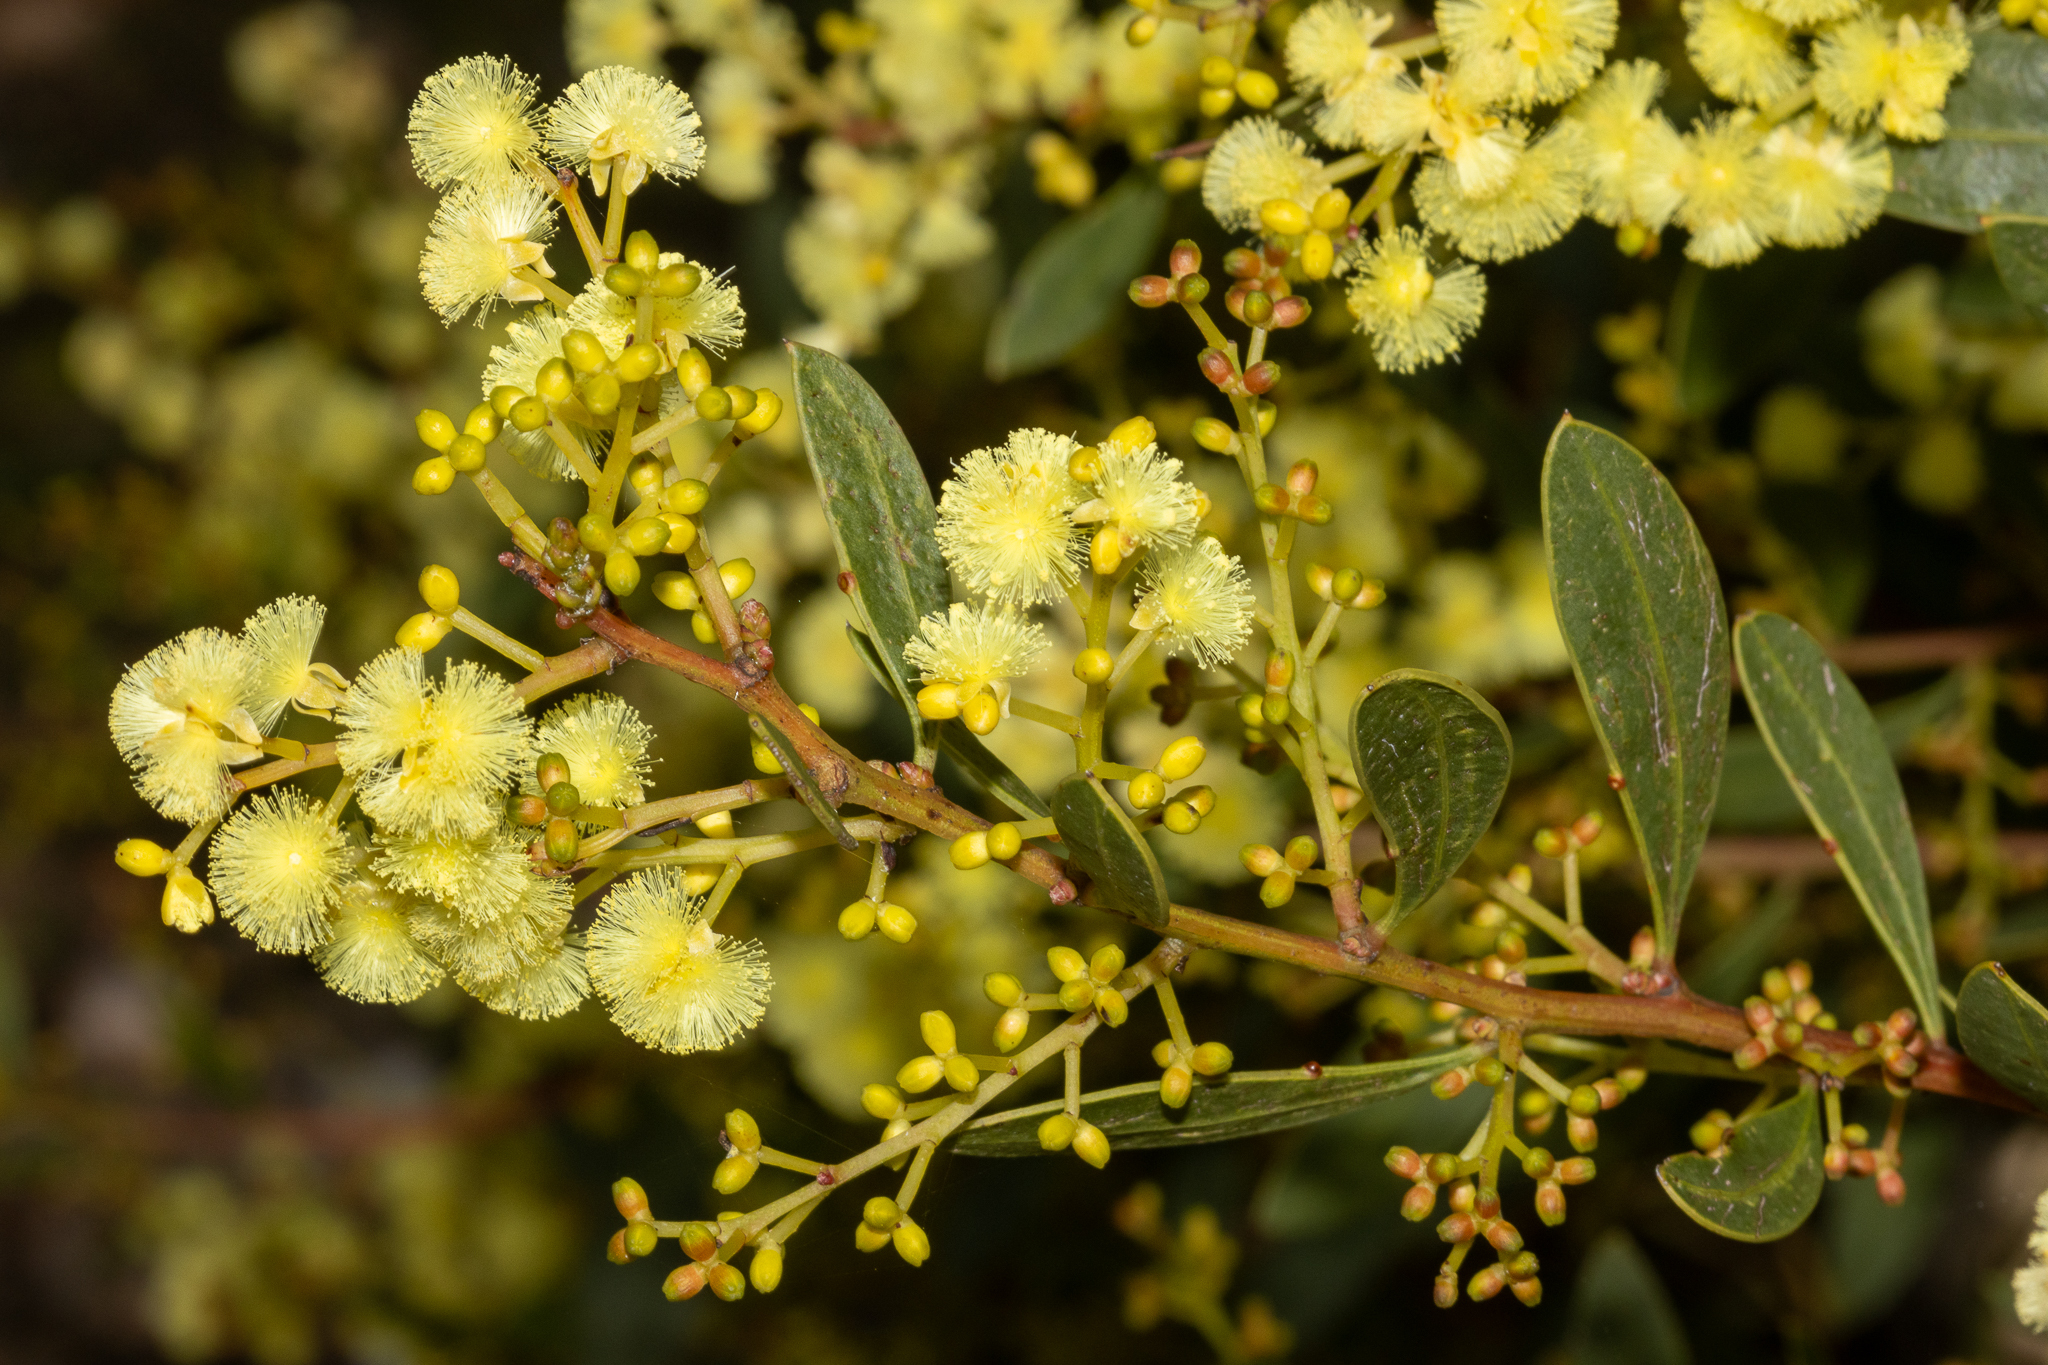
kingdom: Plantae
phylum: Tracheophyta
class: Magnoliopsida
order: Fabales
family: Fabaceae
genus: Acacia
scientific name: Acacia myrtifolia
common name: Myrtle wattle
